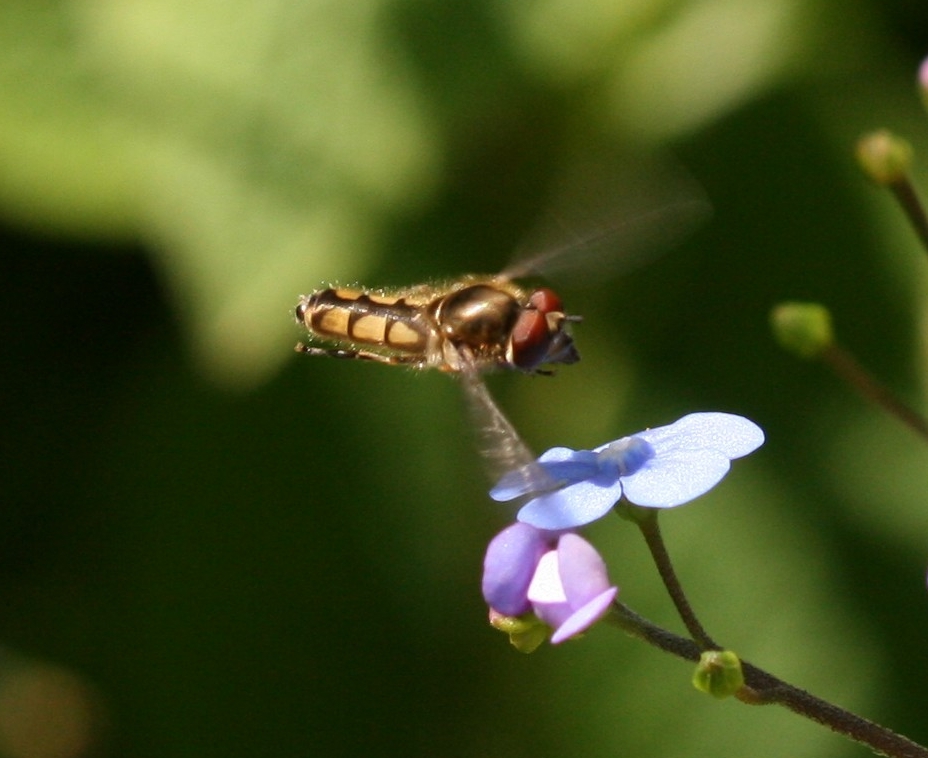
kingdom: Animalia
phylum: Arthropoda
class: Insecta
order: Diptera
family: Syrphidae
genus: Platycheirus
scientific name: Platycheirus manicatus
